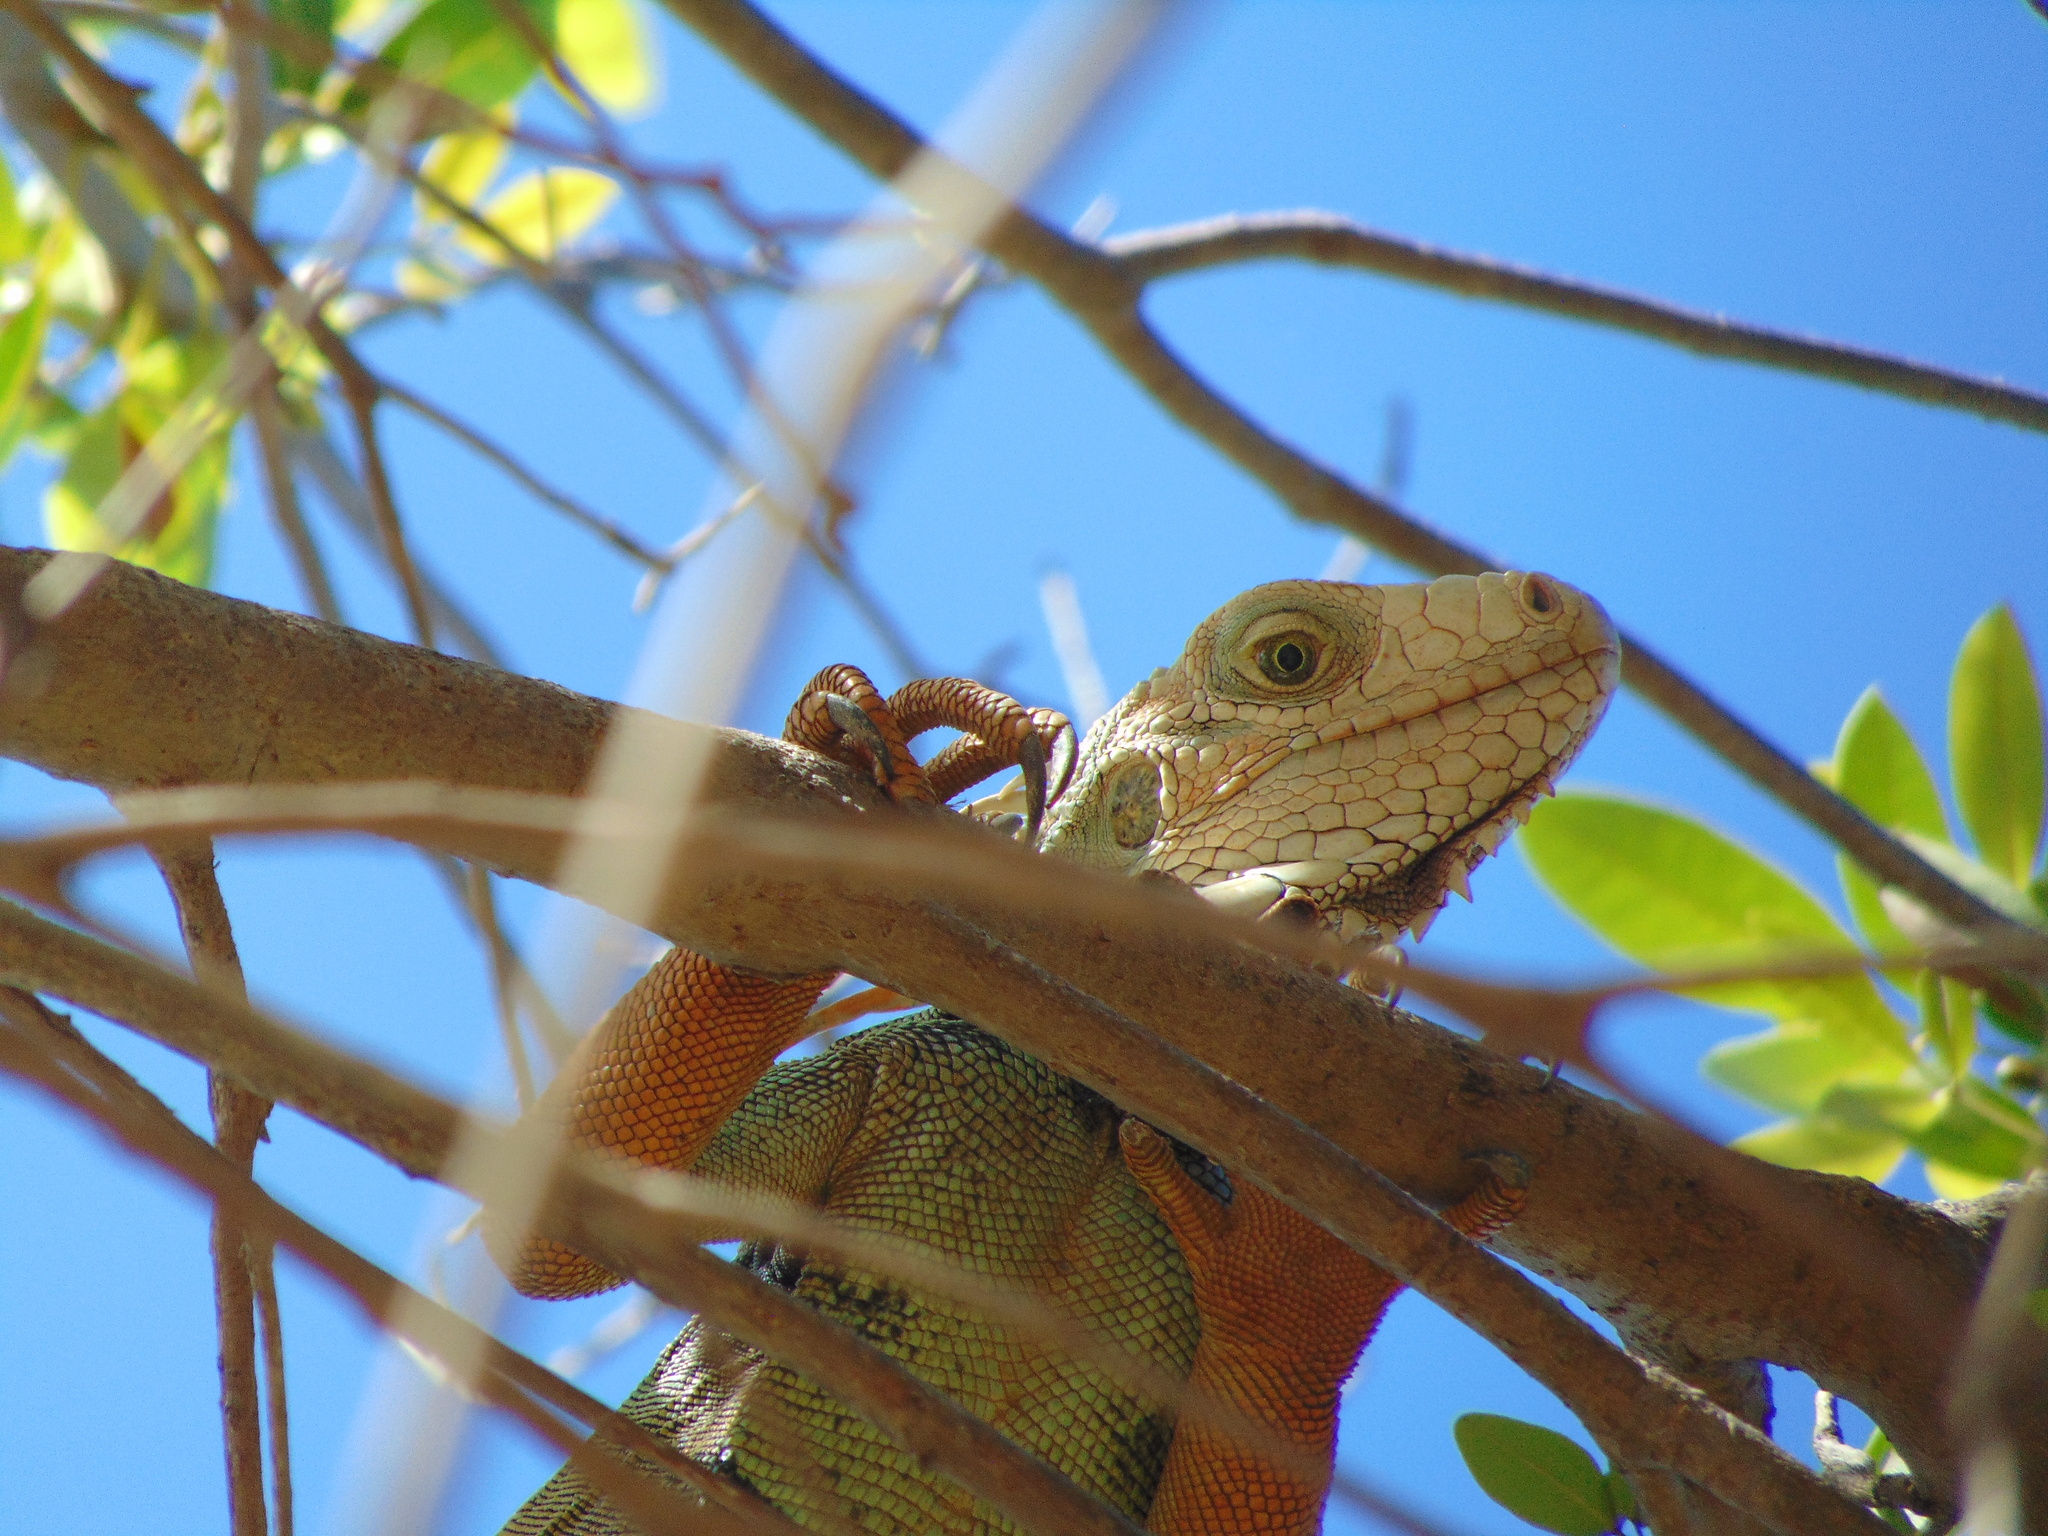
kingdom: Animalia
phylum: Chordata
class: Squamata
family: Iguanidae
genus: Iguana
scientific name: Iguana iguana
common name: Green iguana
